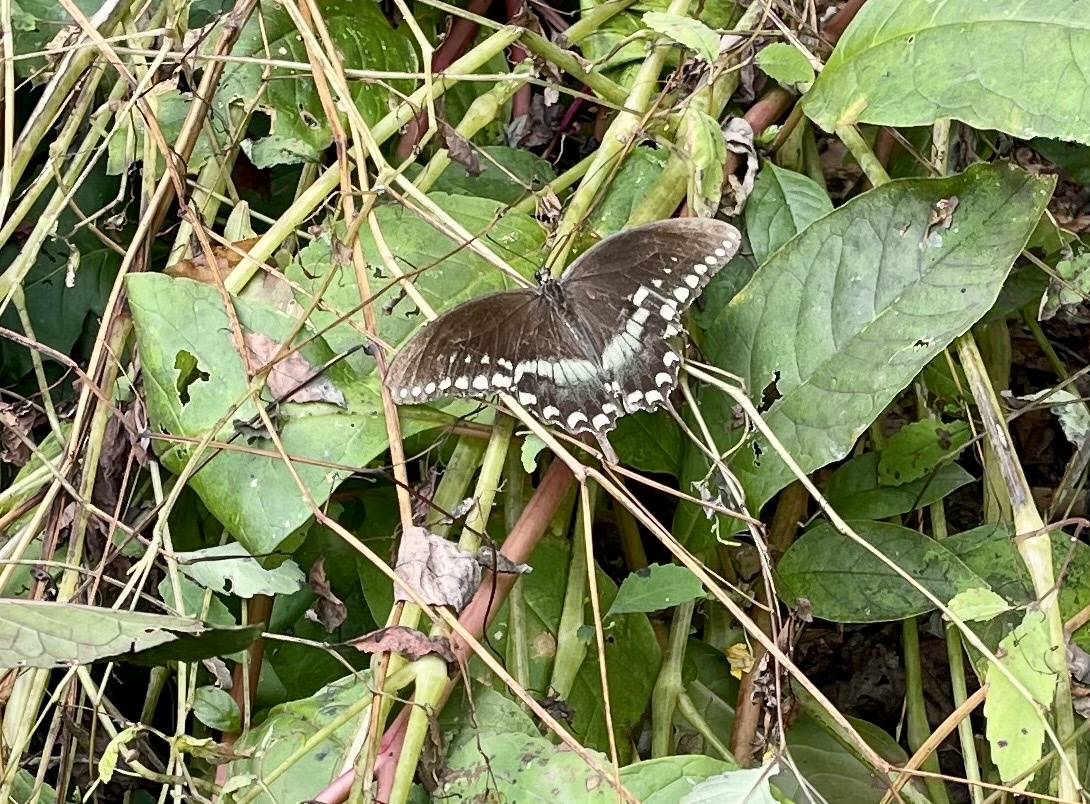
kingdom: Animalia
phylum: Arthropoda
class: Insecta
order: Lepidoptera
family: Papilionidae
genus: Papilio
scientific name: Papilio troilus
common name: Spicebush swallowtail
